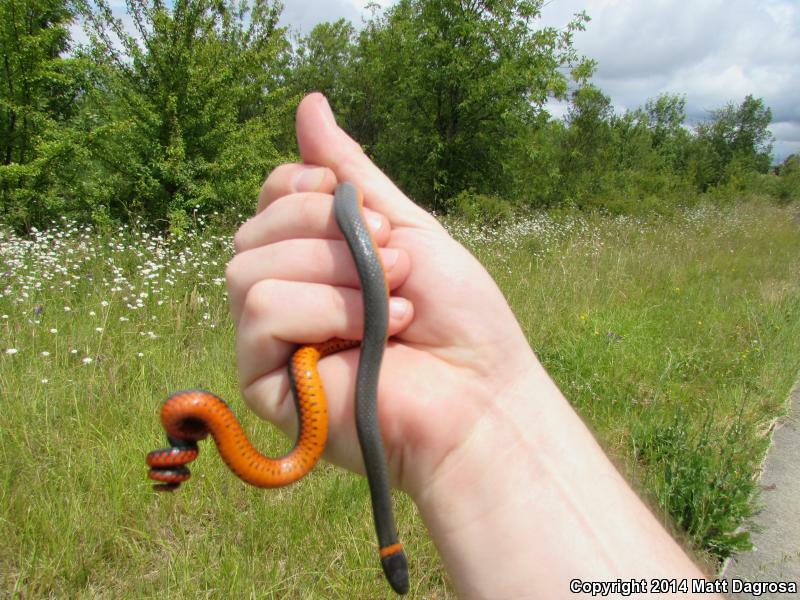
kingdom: Animalia
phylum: Chordata
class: Squamata
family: Colubridae
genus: Diadophis
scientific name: Diadophis punctatus
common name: Ringneck snake
